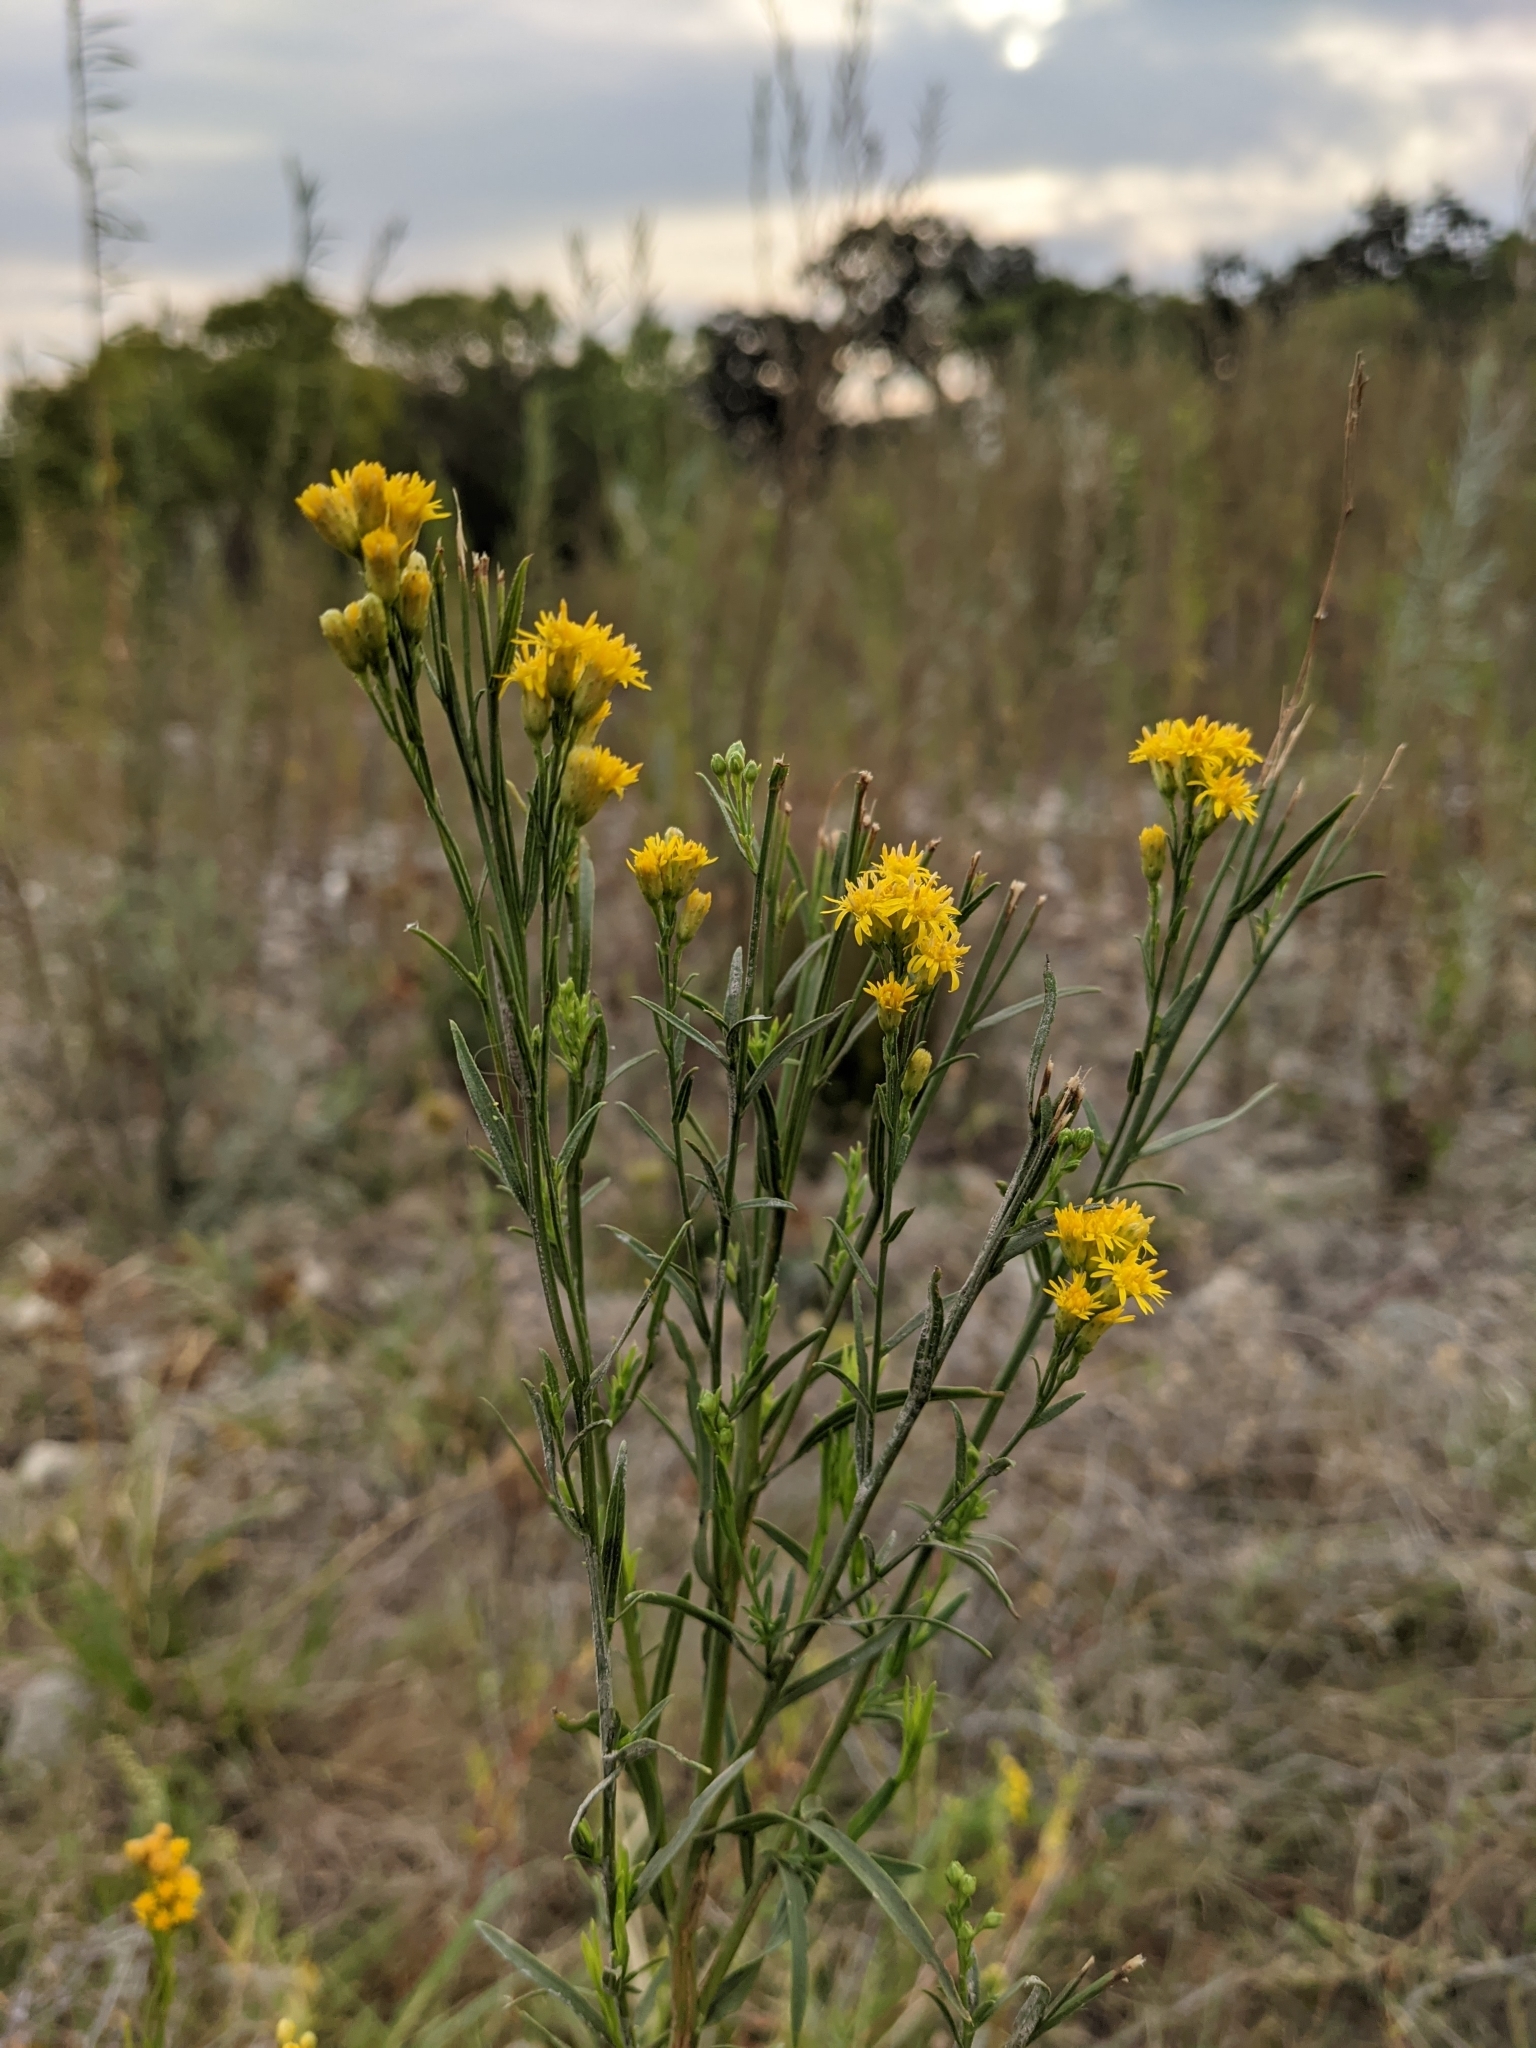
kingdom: Plantae
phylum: Tracheophyta
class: Magnoliopsida
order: Asterales
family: Asteraceae
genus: Euthamia
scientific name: Euthamia occidentalis
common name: Western goldentop
